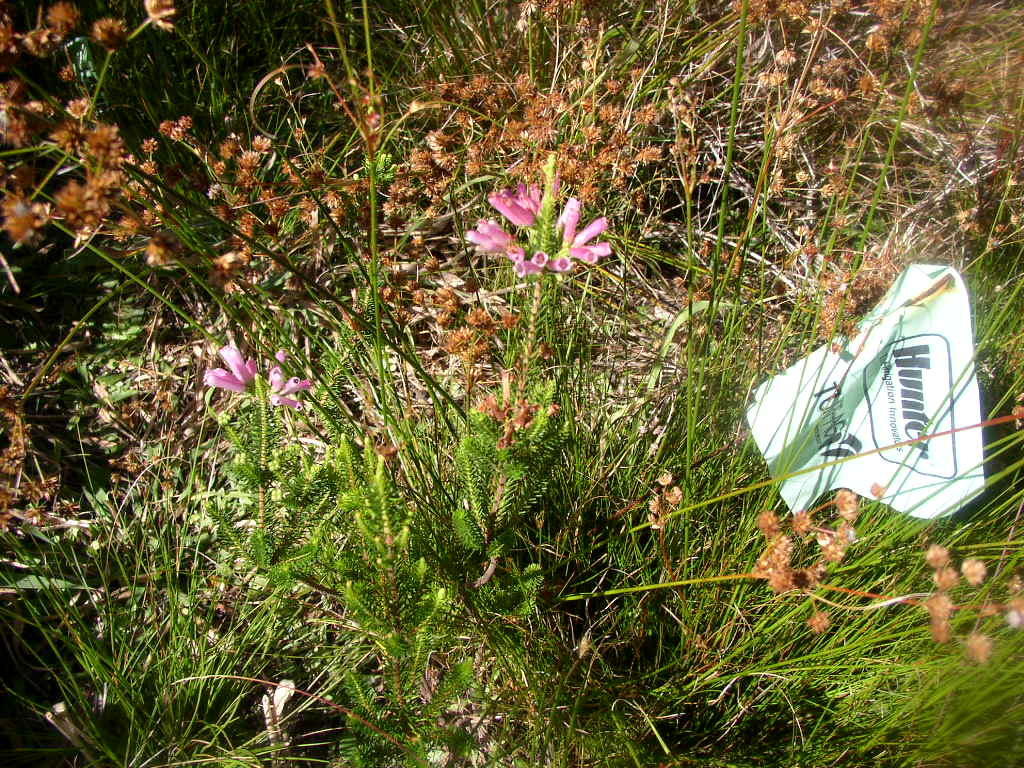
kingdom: Plantae
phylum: Tracheophyta
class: Magnoliopsida
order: Ericales
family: Ericaceae
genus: Erica
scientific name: Erica verticillata
